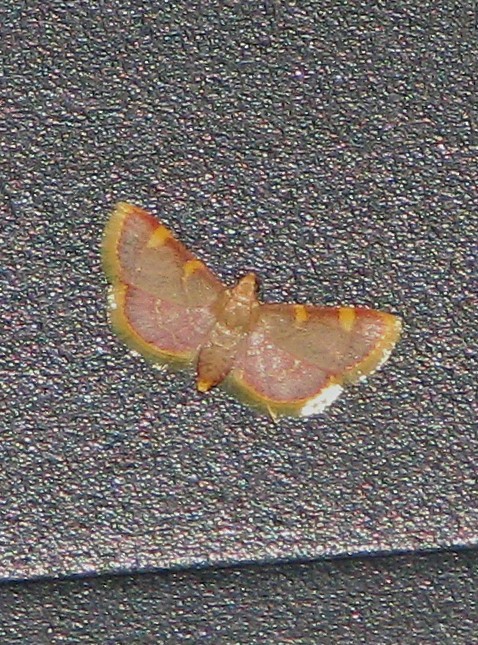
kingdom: Animalia
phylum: Arthropoda
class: Insecta
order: Lepidoptera
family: Pyralidae
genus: Hypsopygia
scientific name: Hypsopygia costalis
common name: Gold triangle
